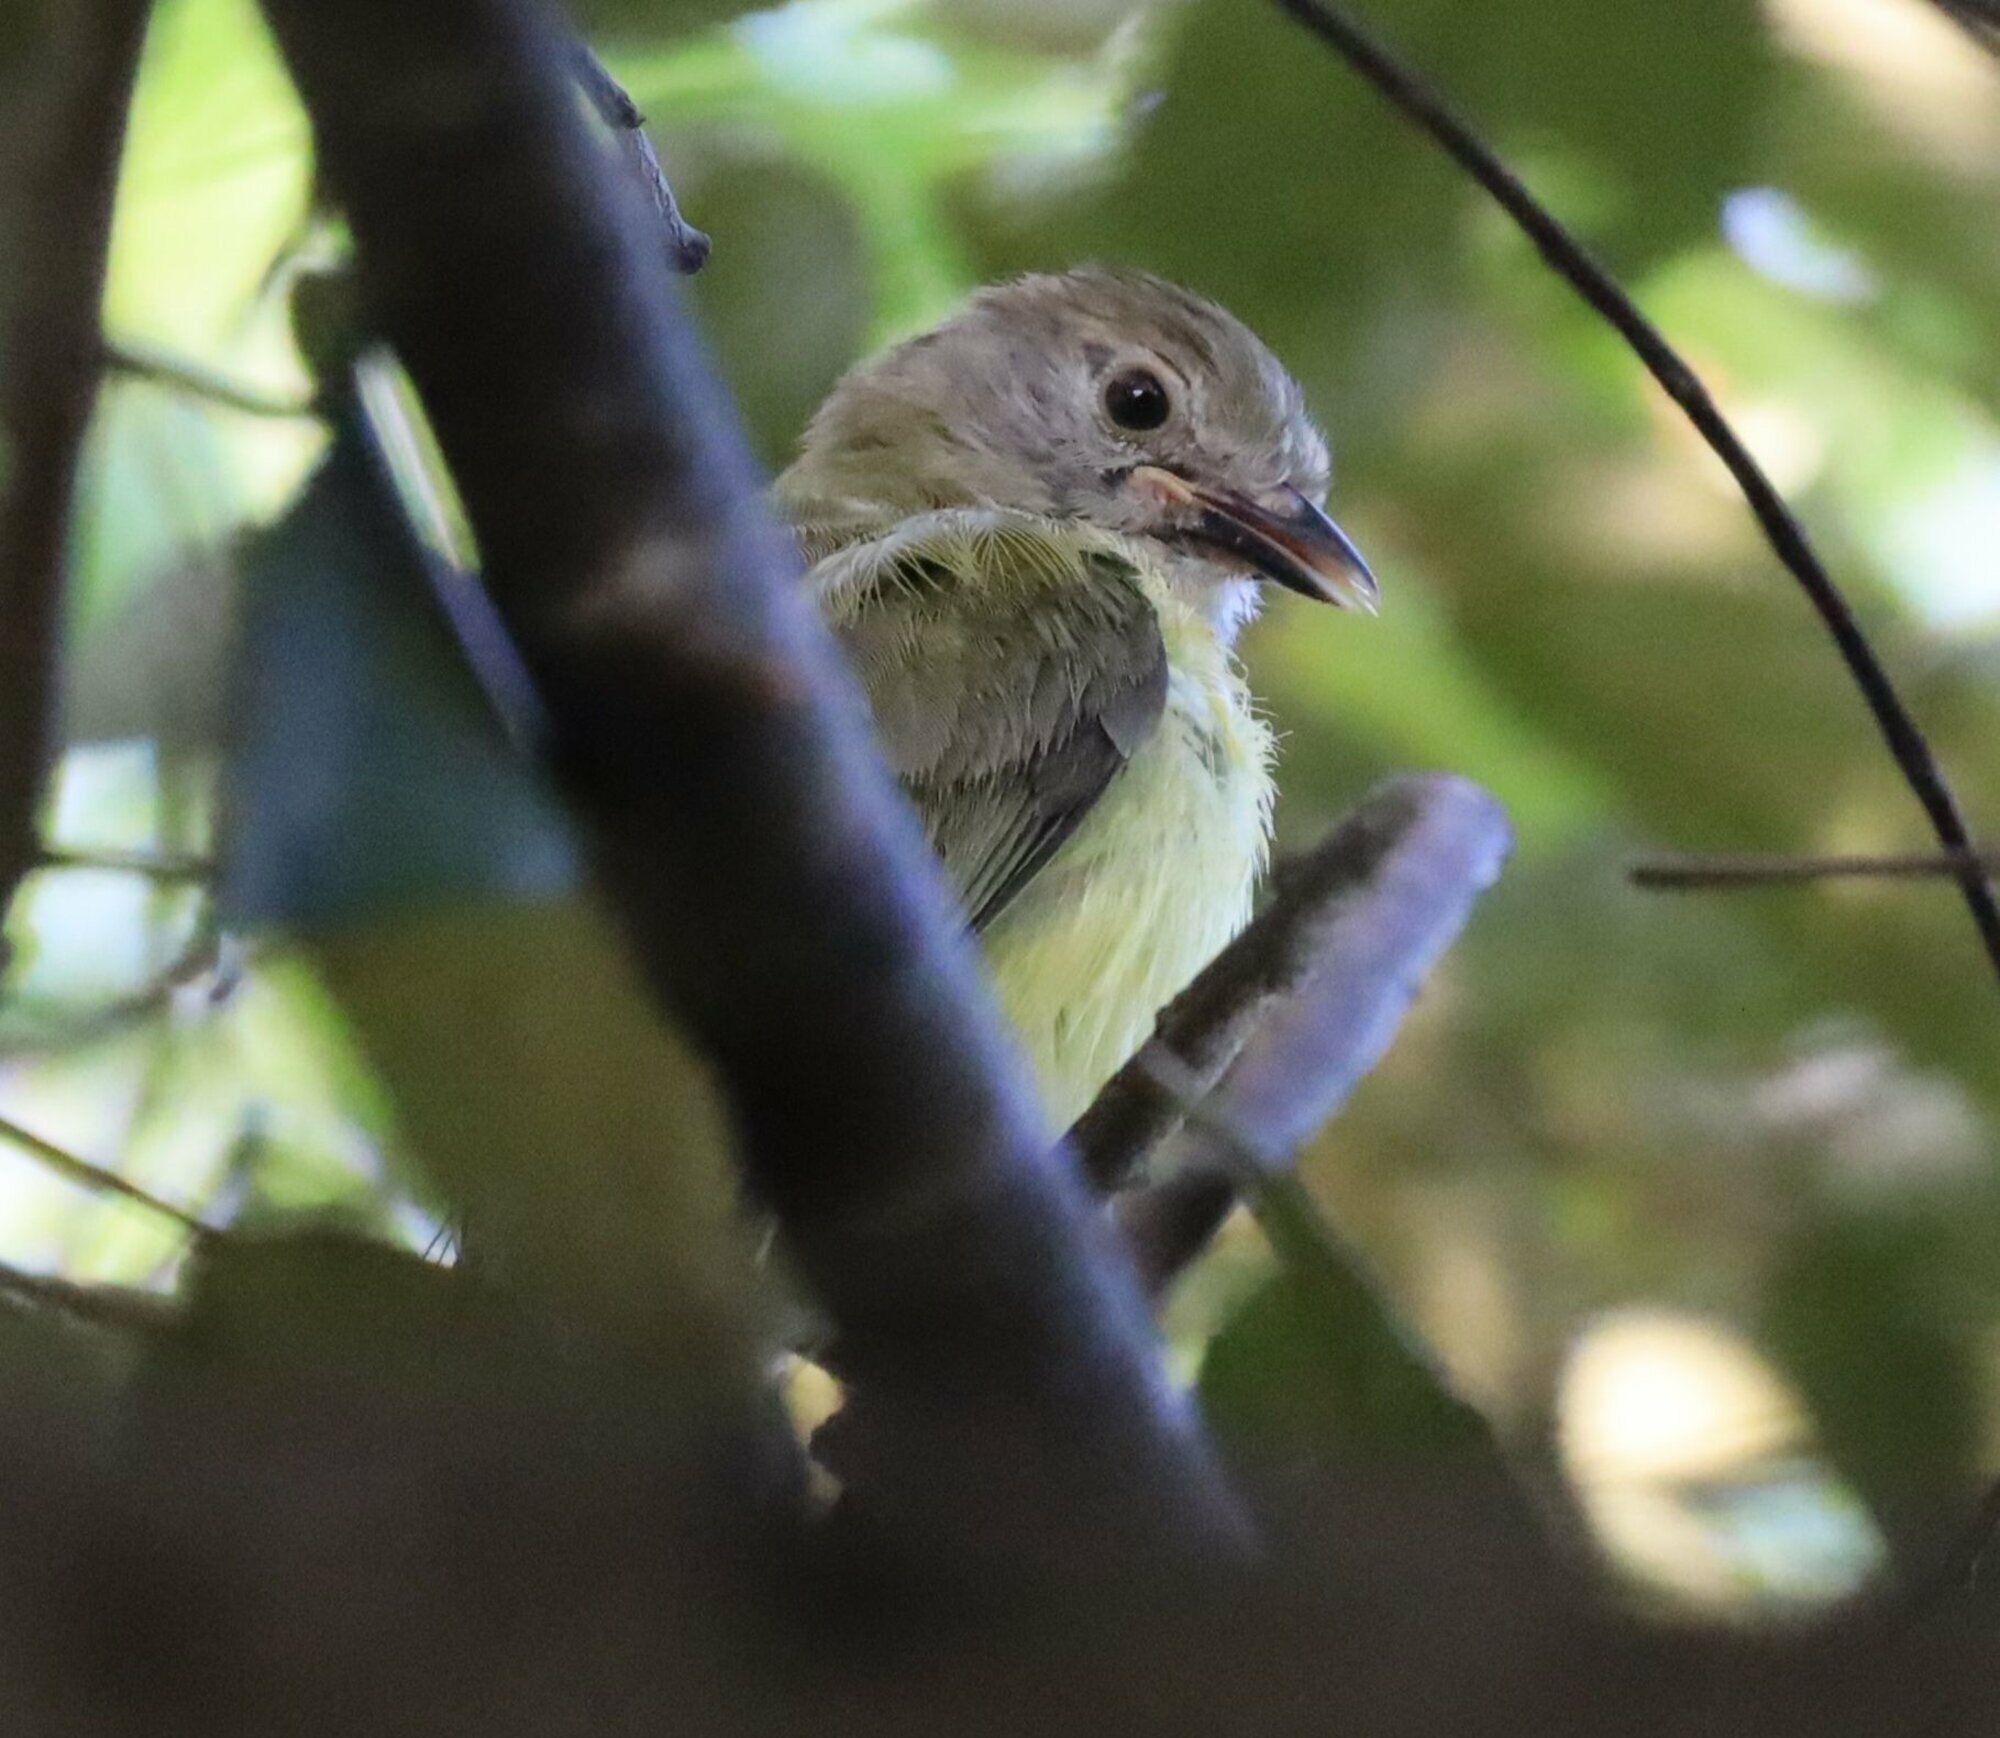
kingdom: Animalia
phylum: Chordata
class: Aves
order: Passeriformes
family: Vireonidae
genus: Hylophilus
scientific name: Hylophilus flavipes
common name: Scrub greenlet
